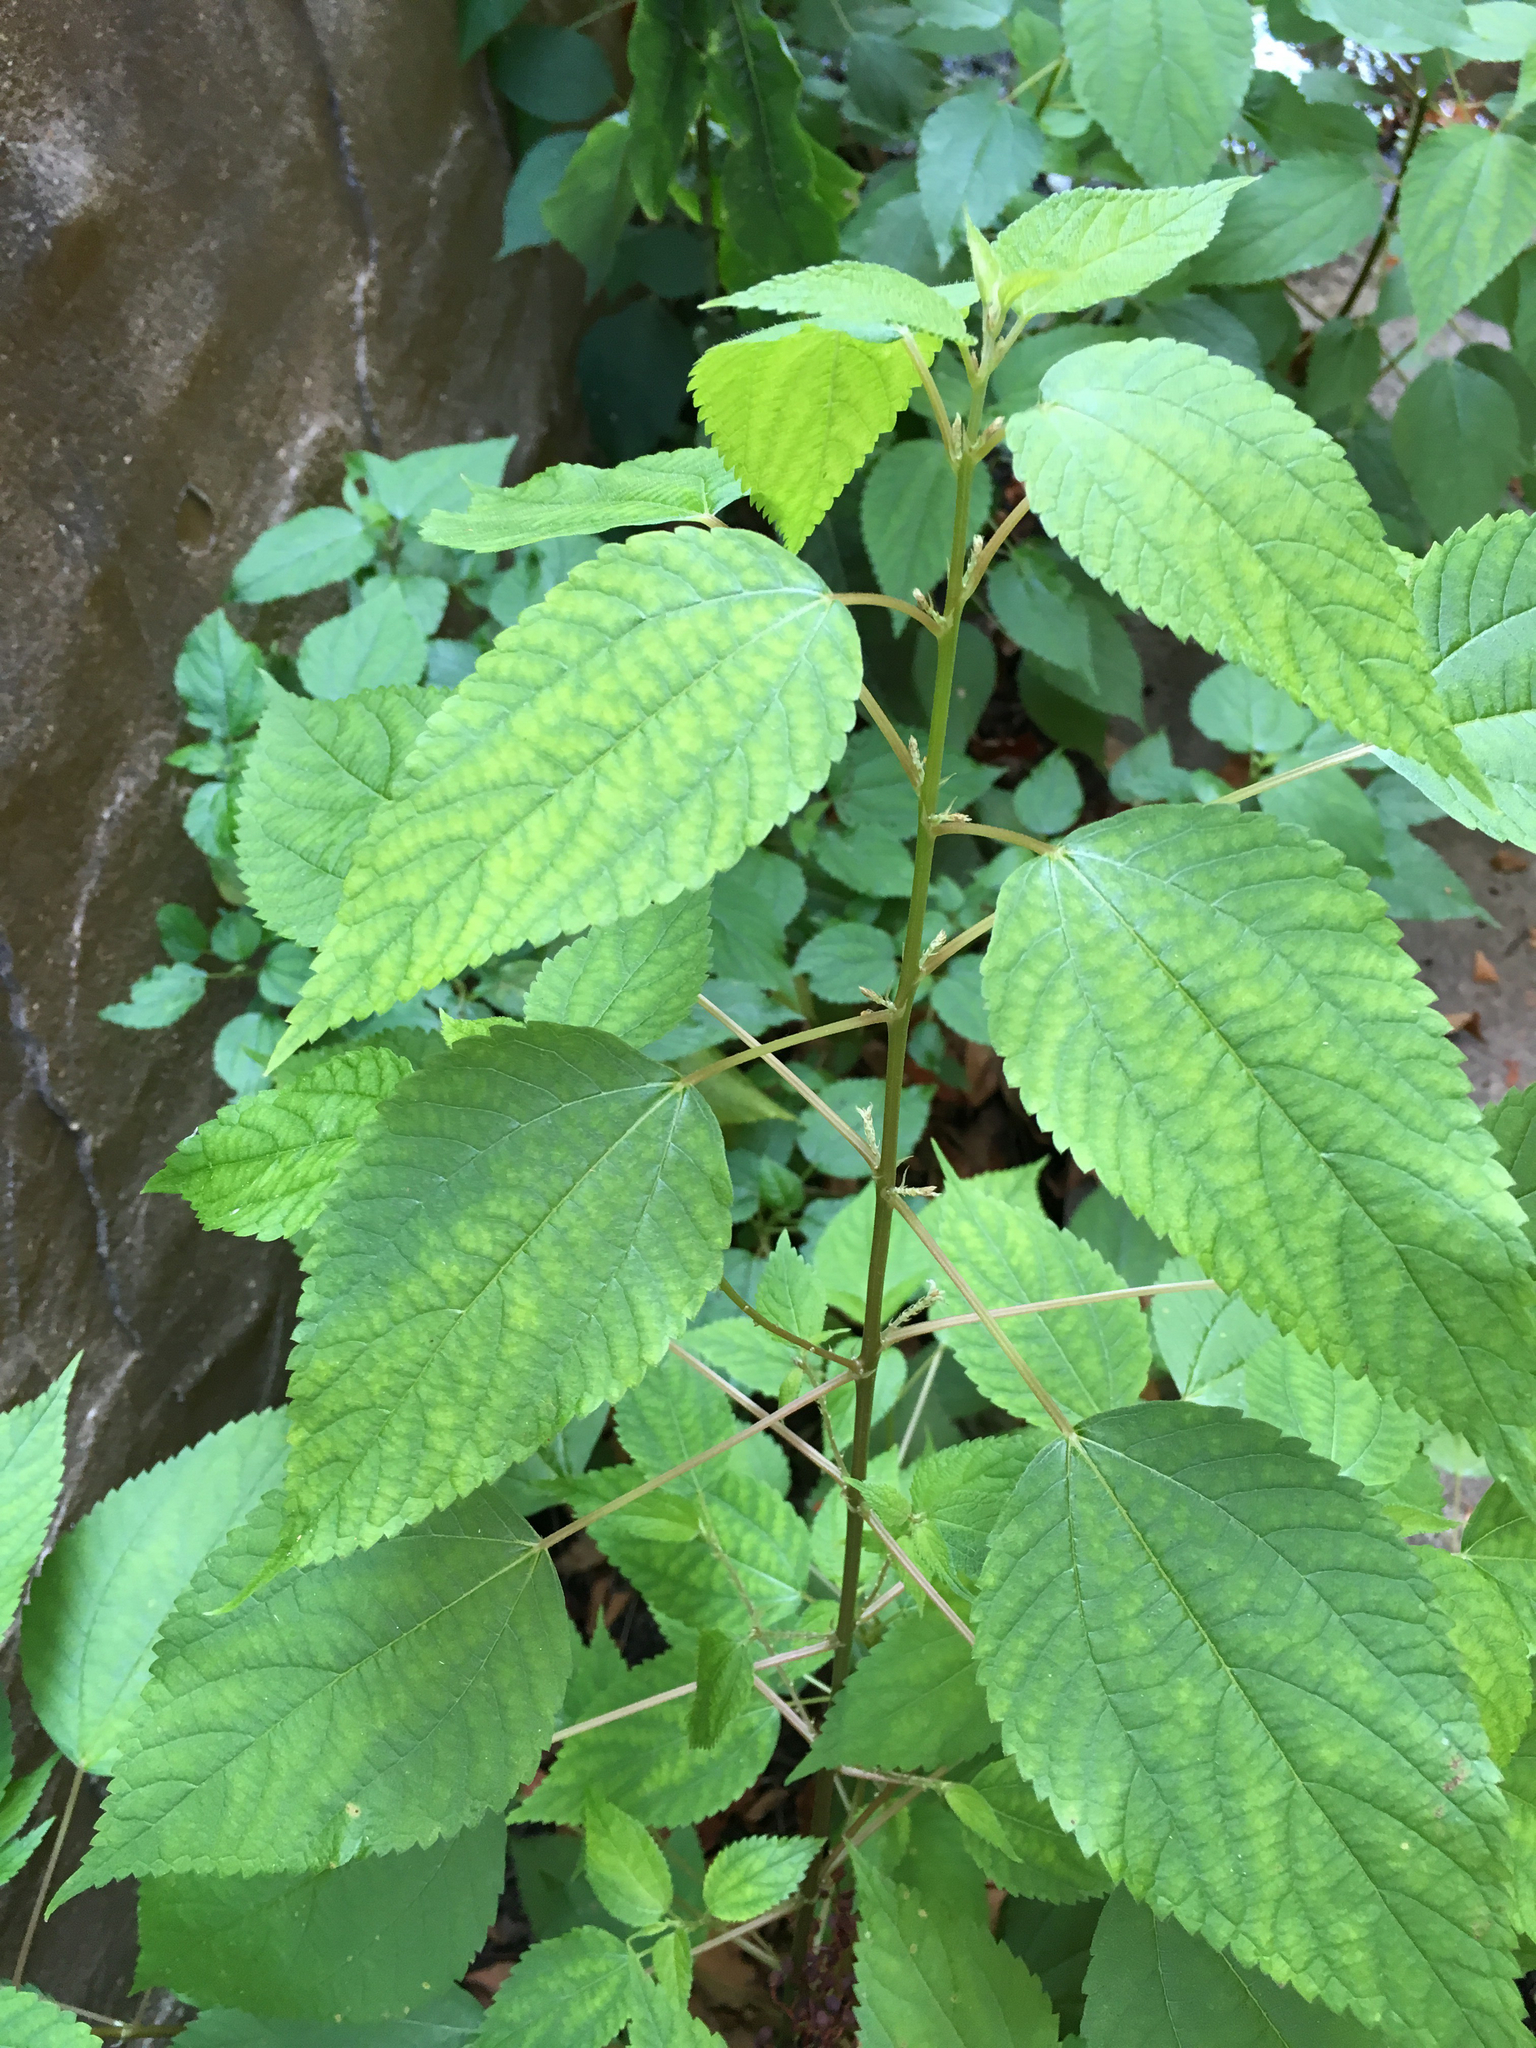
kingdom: Plantae
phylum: Tracheophyta
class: Magnoliopsida
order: Rosales
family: Urticaceae
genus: Boehmeria
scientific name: Boehmeria cylindrica
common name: Bog-hemp
